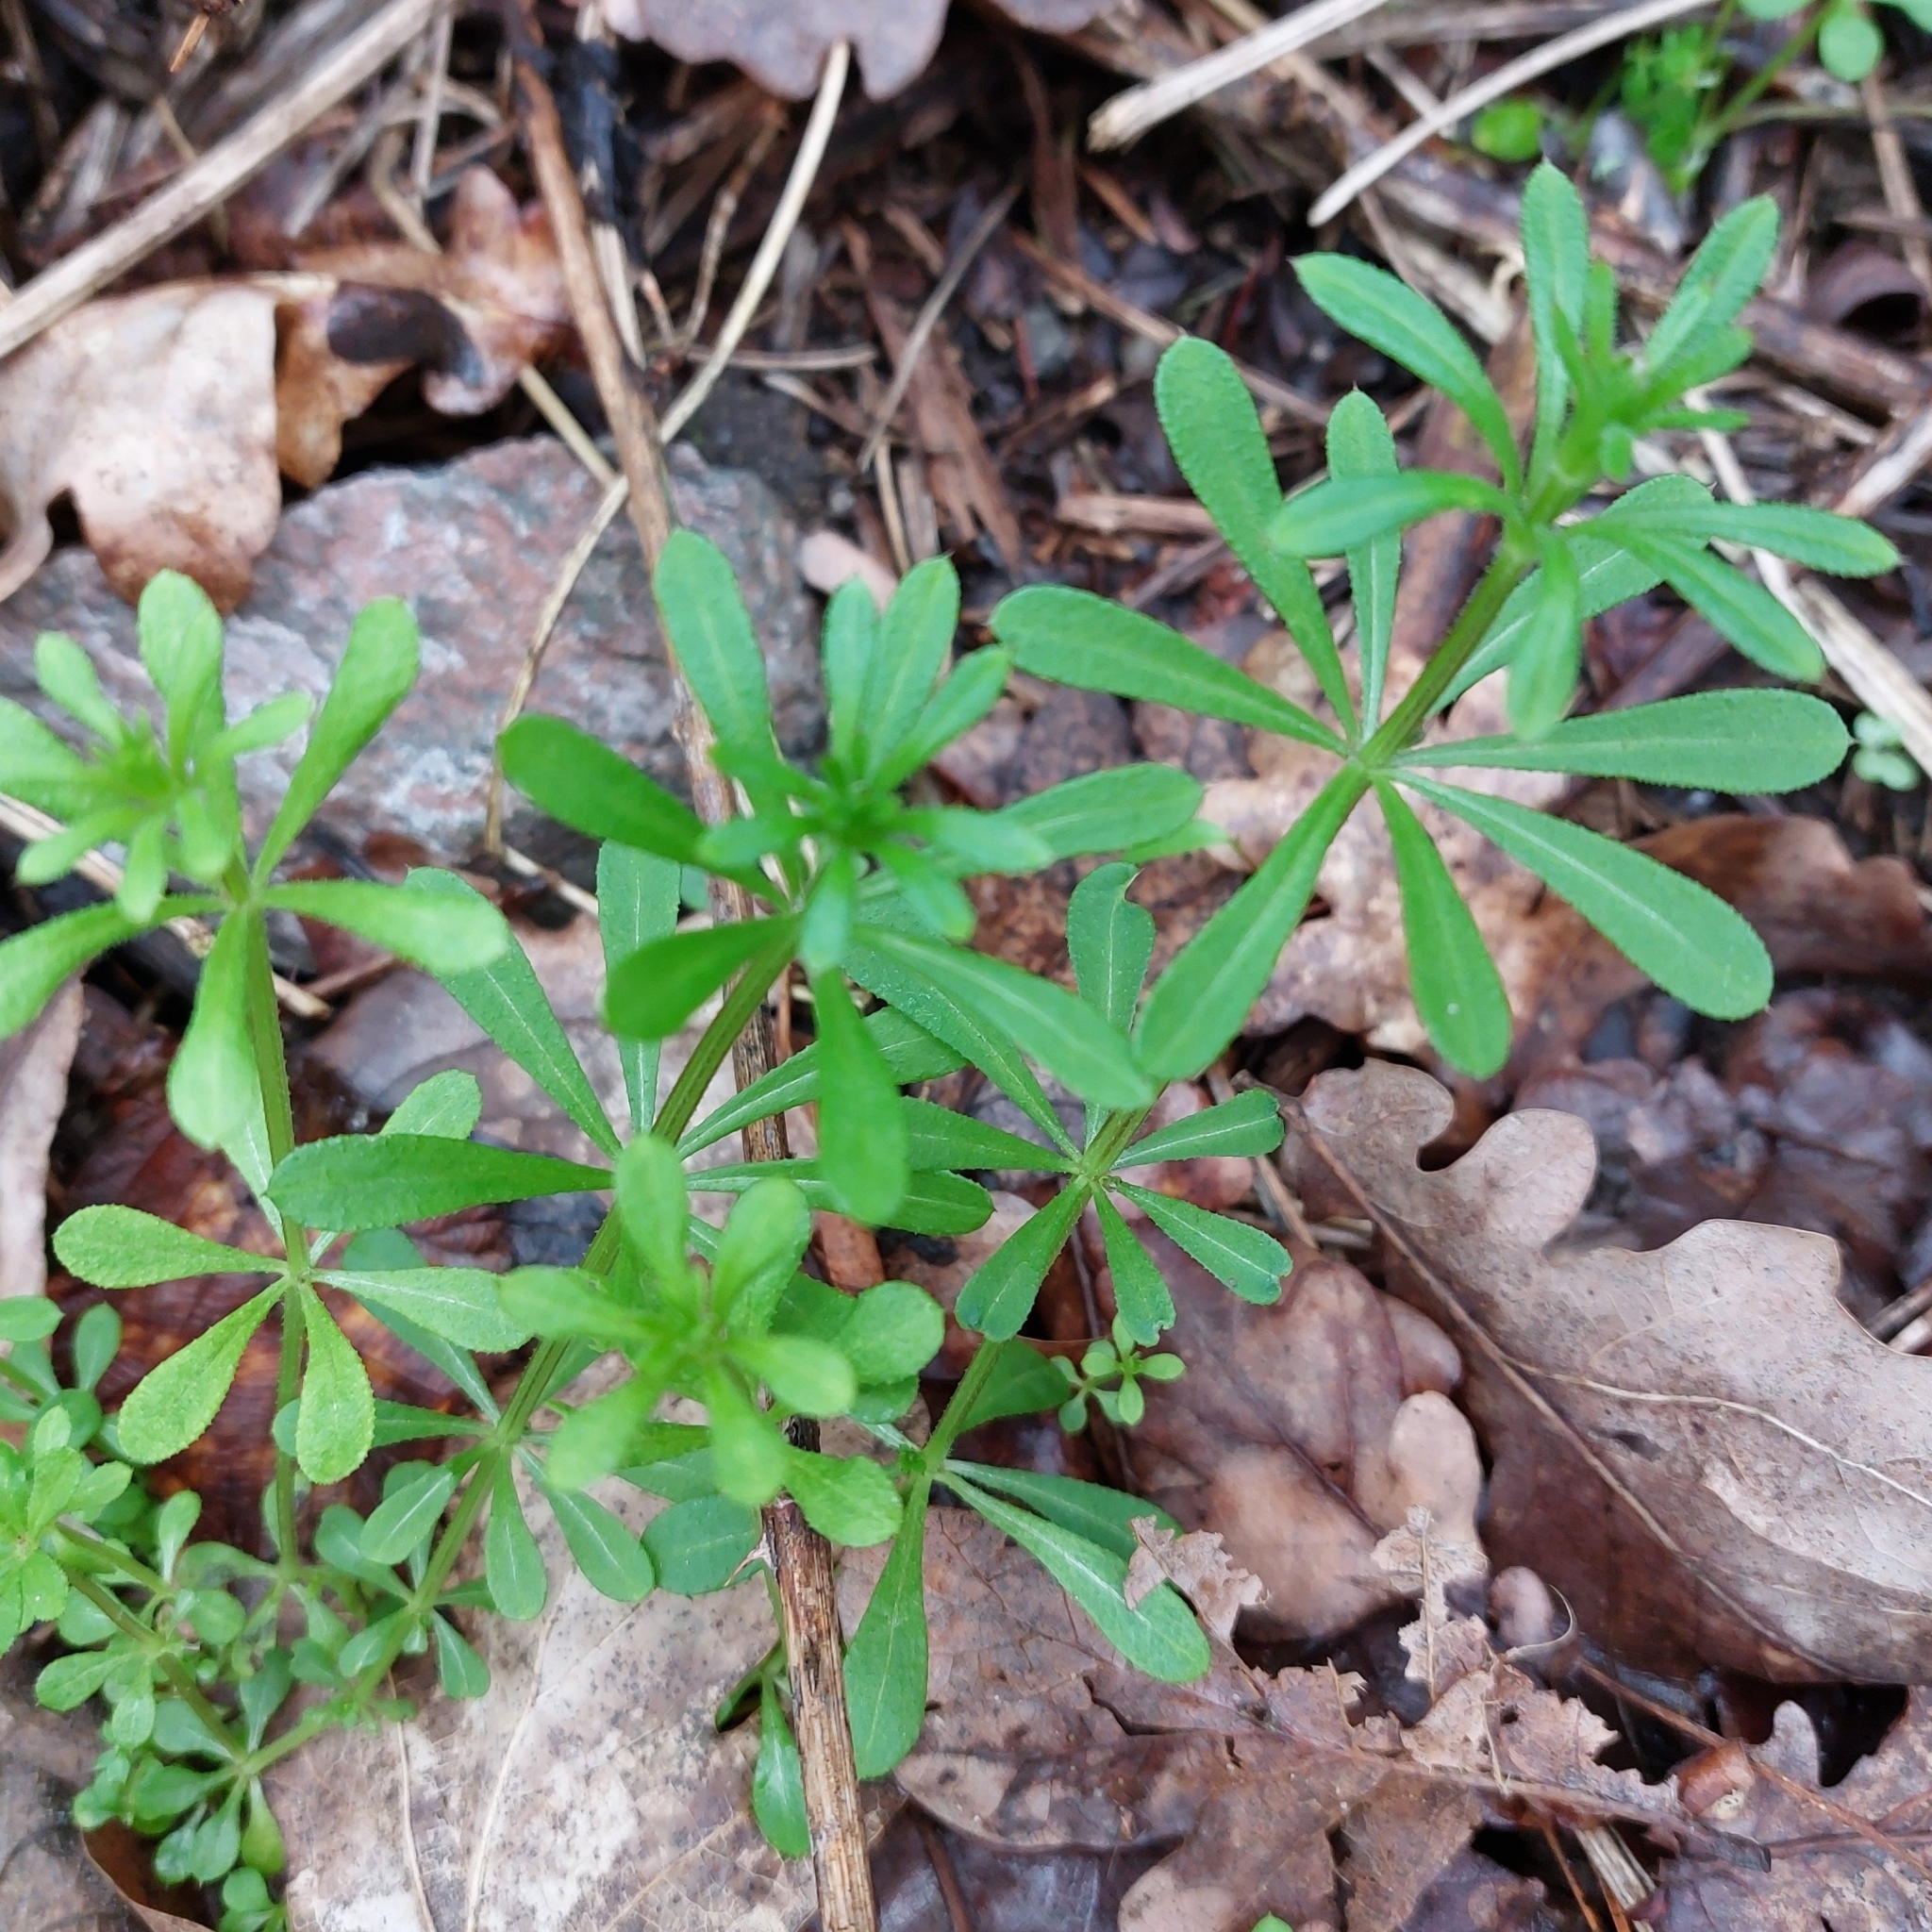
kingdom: Plantae
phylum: Tracheophyta
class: Magnoliopsida
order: Gentianales
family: Rubiaceae
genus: Galium
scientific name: Galium aparine
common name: Cleavers
